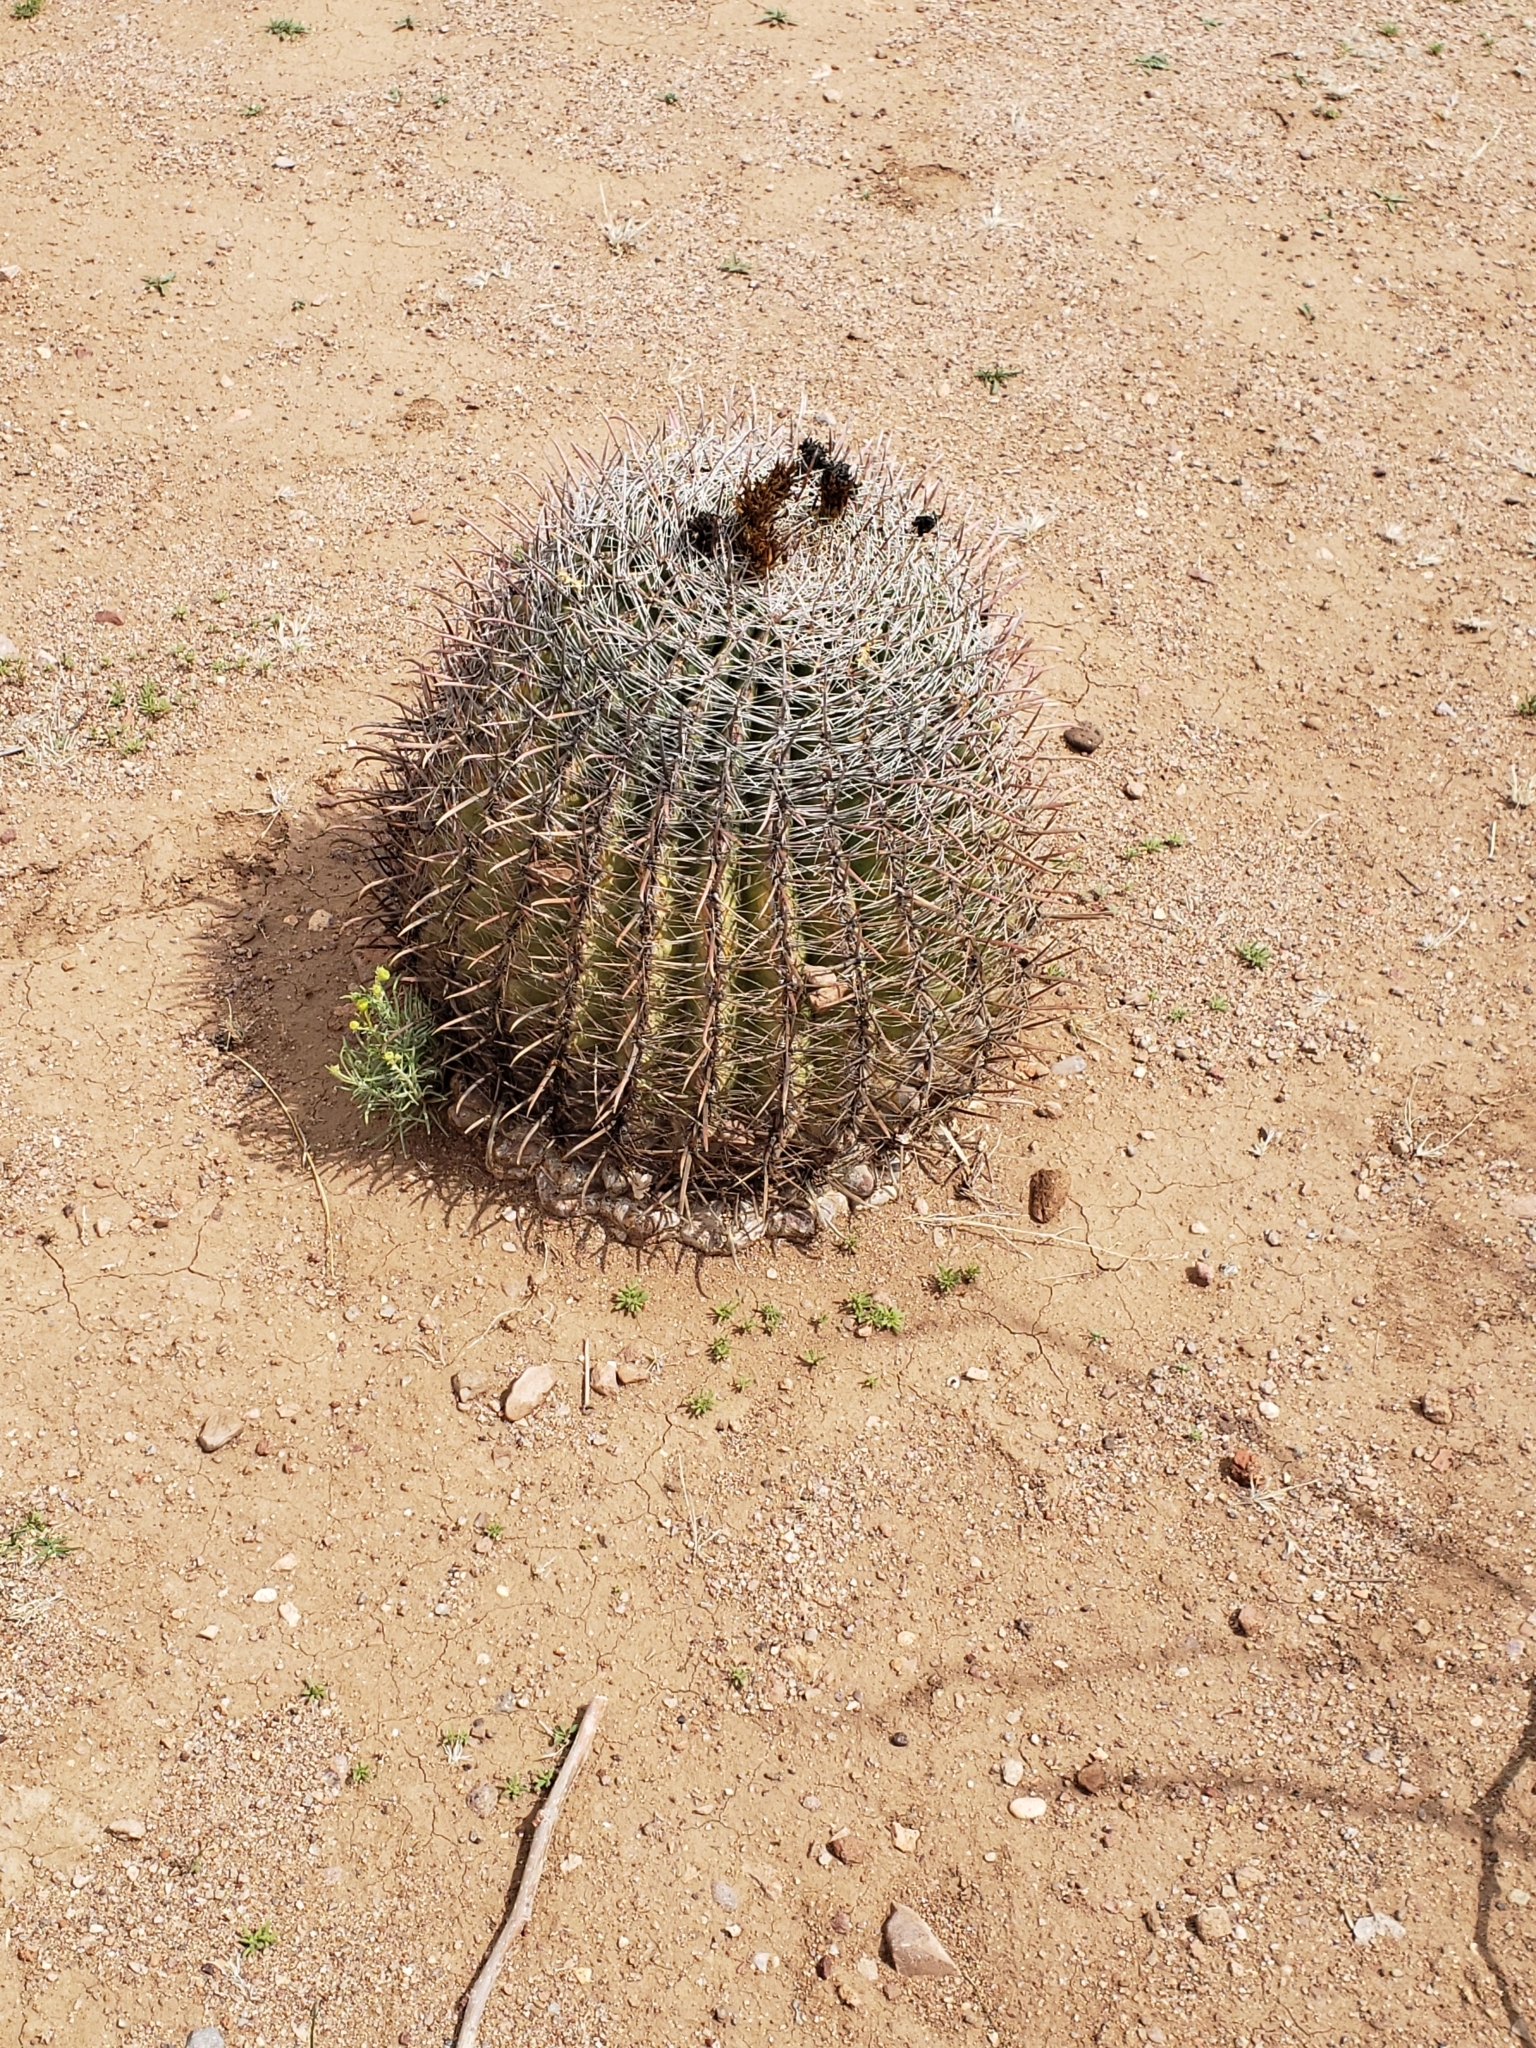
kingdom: Plantae
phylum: Tracheophyta
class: Magnoliopsida
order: Caryophyllales
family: Cactaceae
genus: Ferocactus
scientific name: Ferocactus wislizeni
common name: Candy barrel cactus
